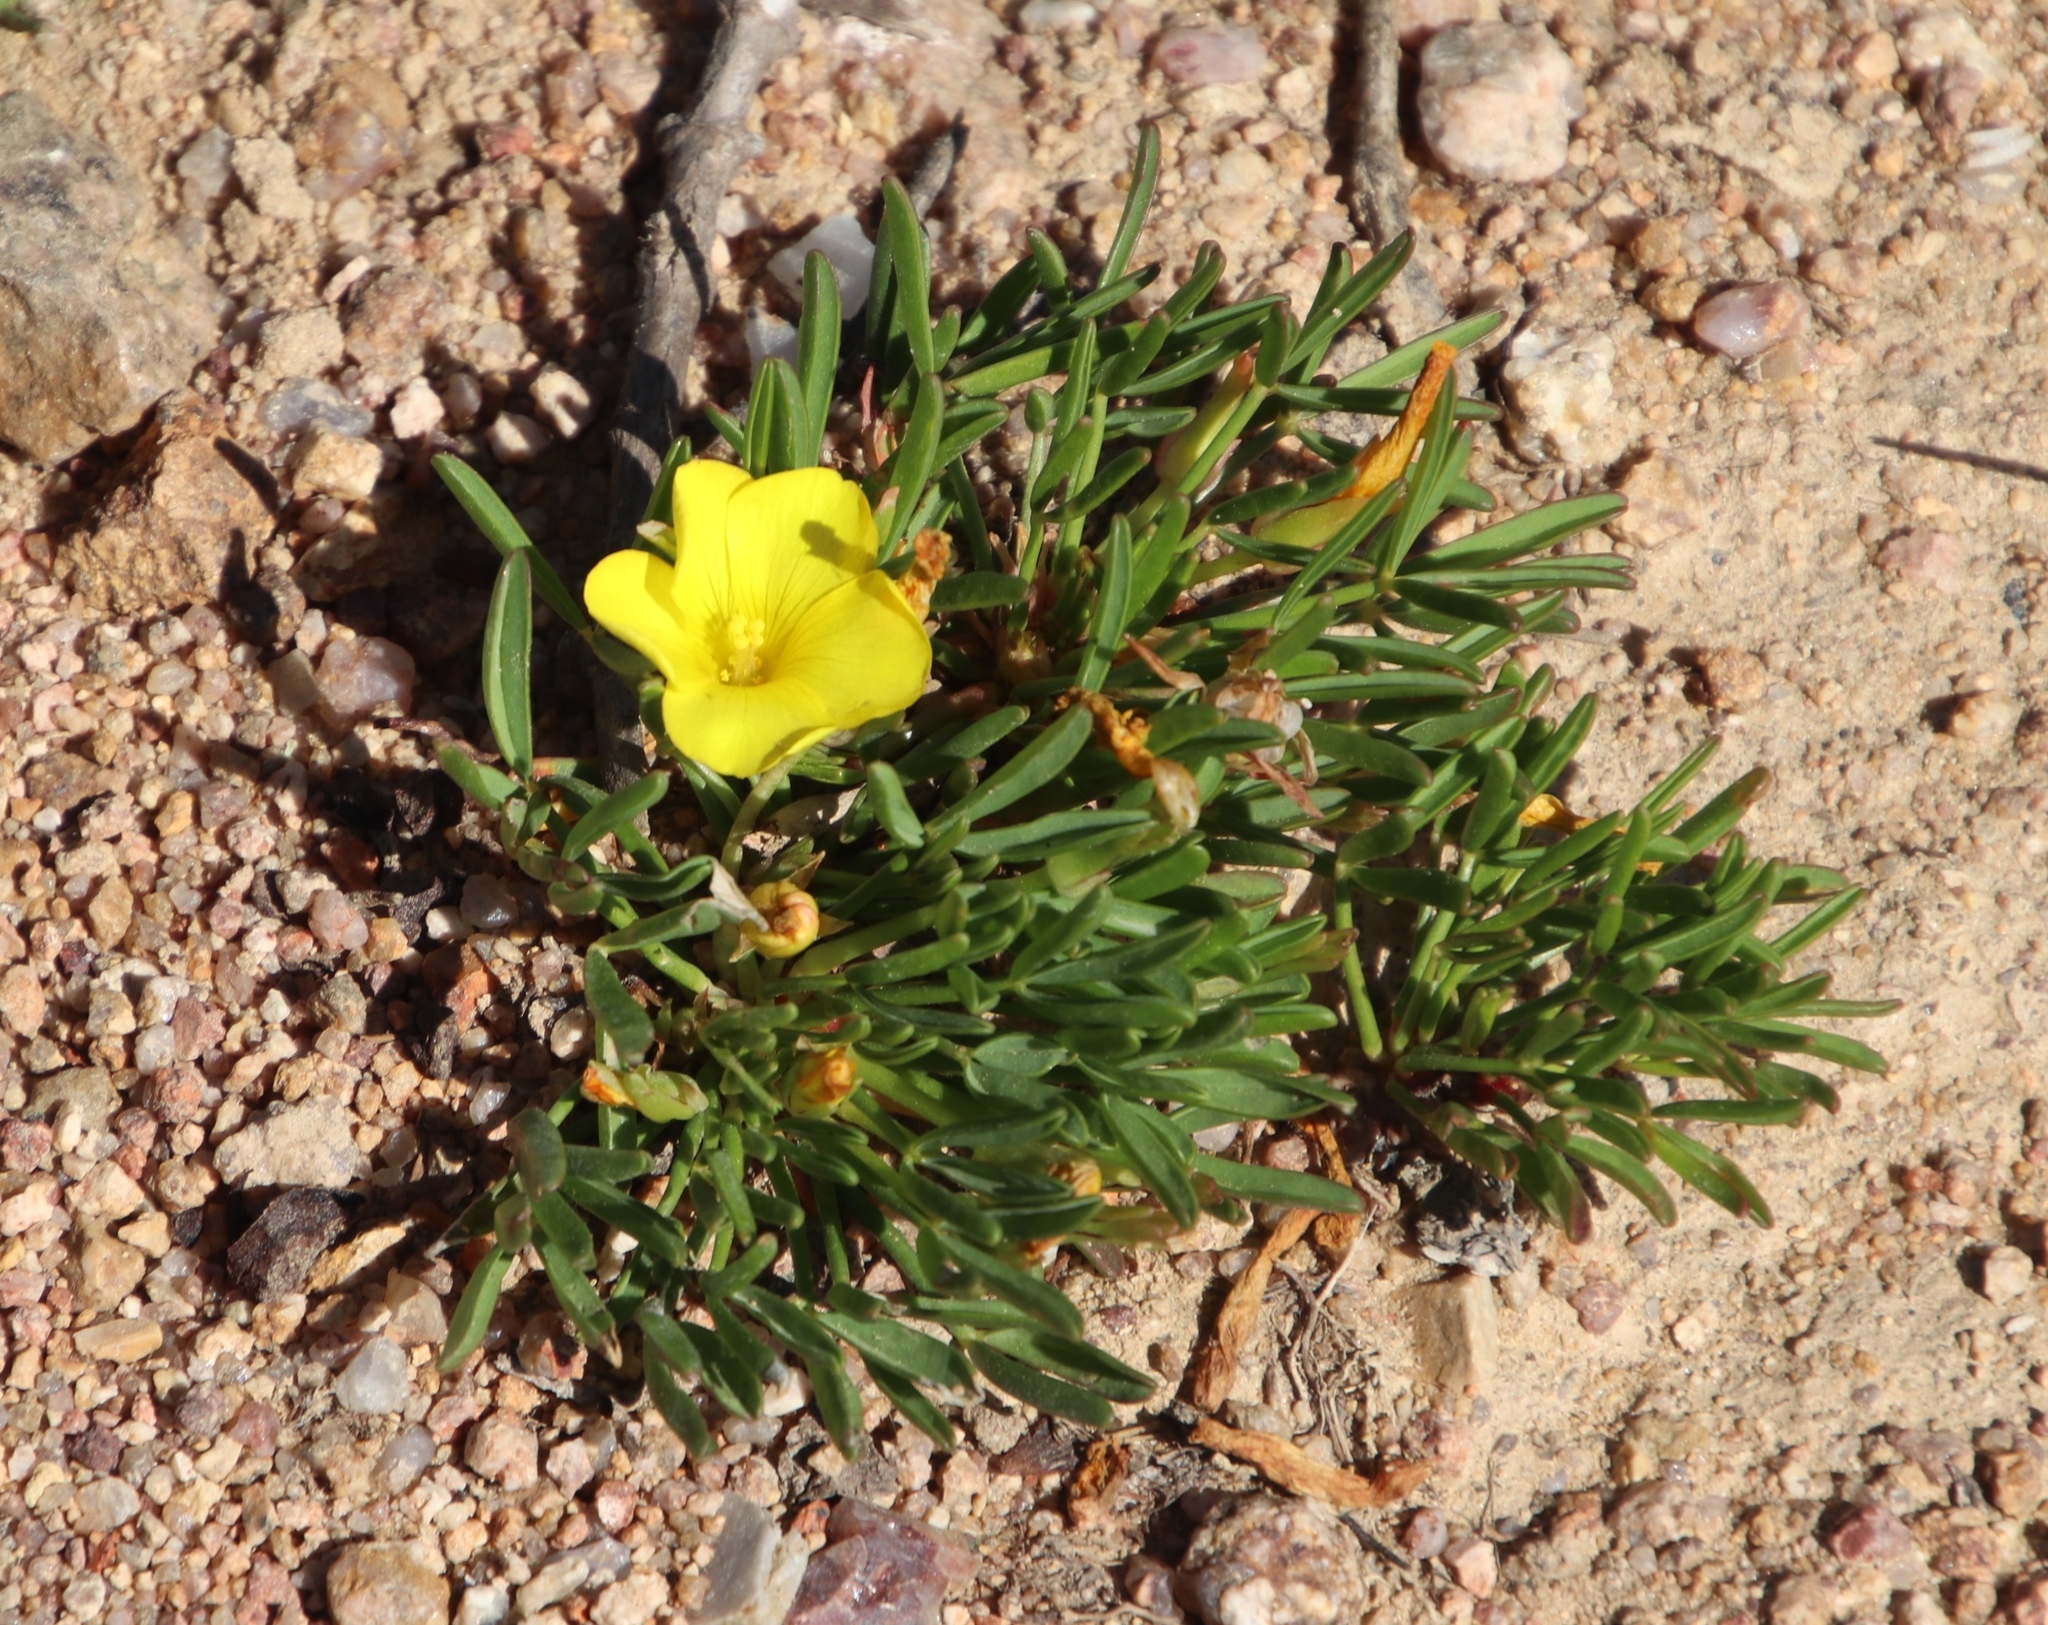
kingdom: Plantae
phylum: Tracheophyta
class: Magnoliopsida
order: Oxalidales
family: Oxalidaceae
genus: Oxalis
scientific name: Oxalis namaquana
